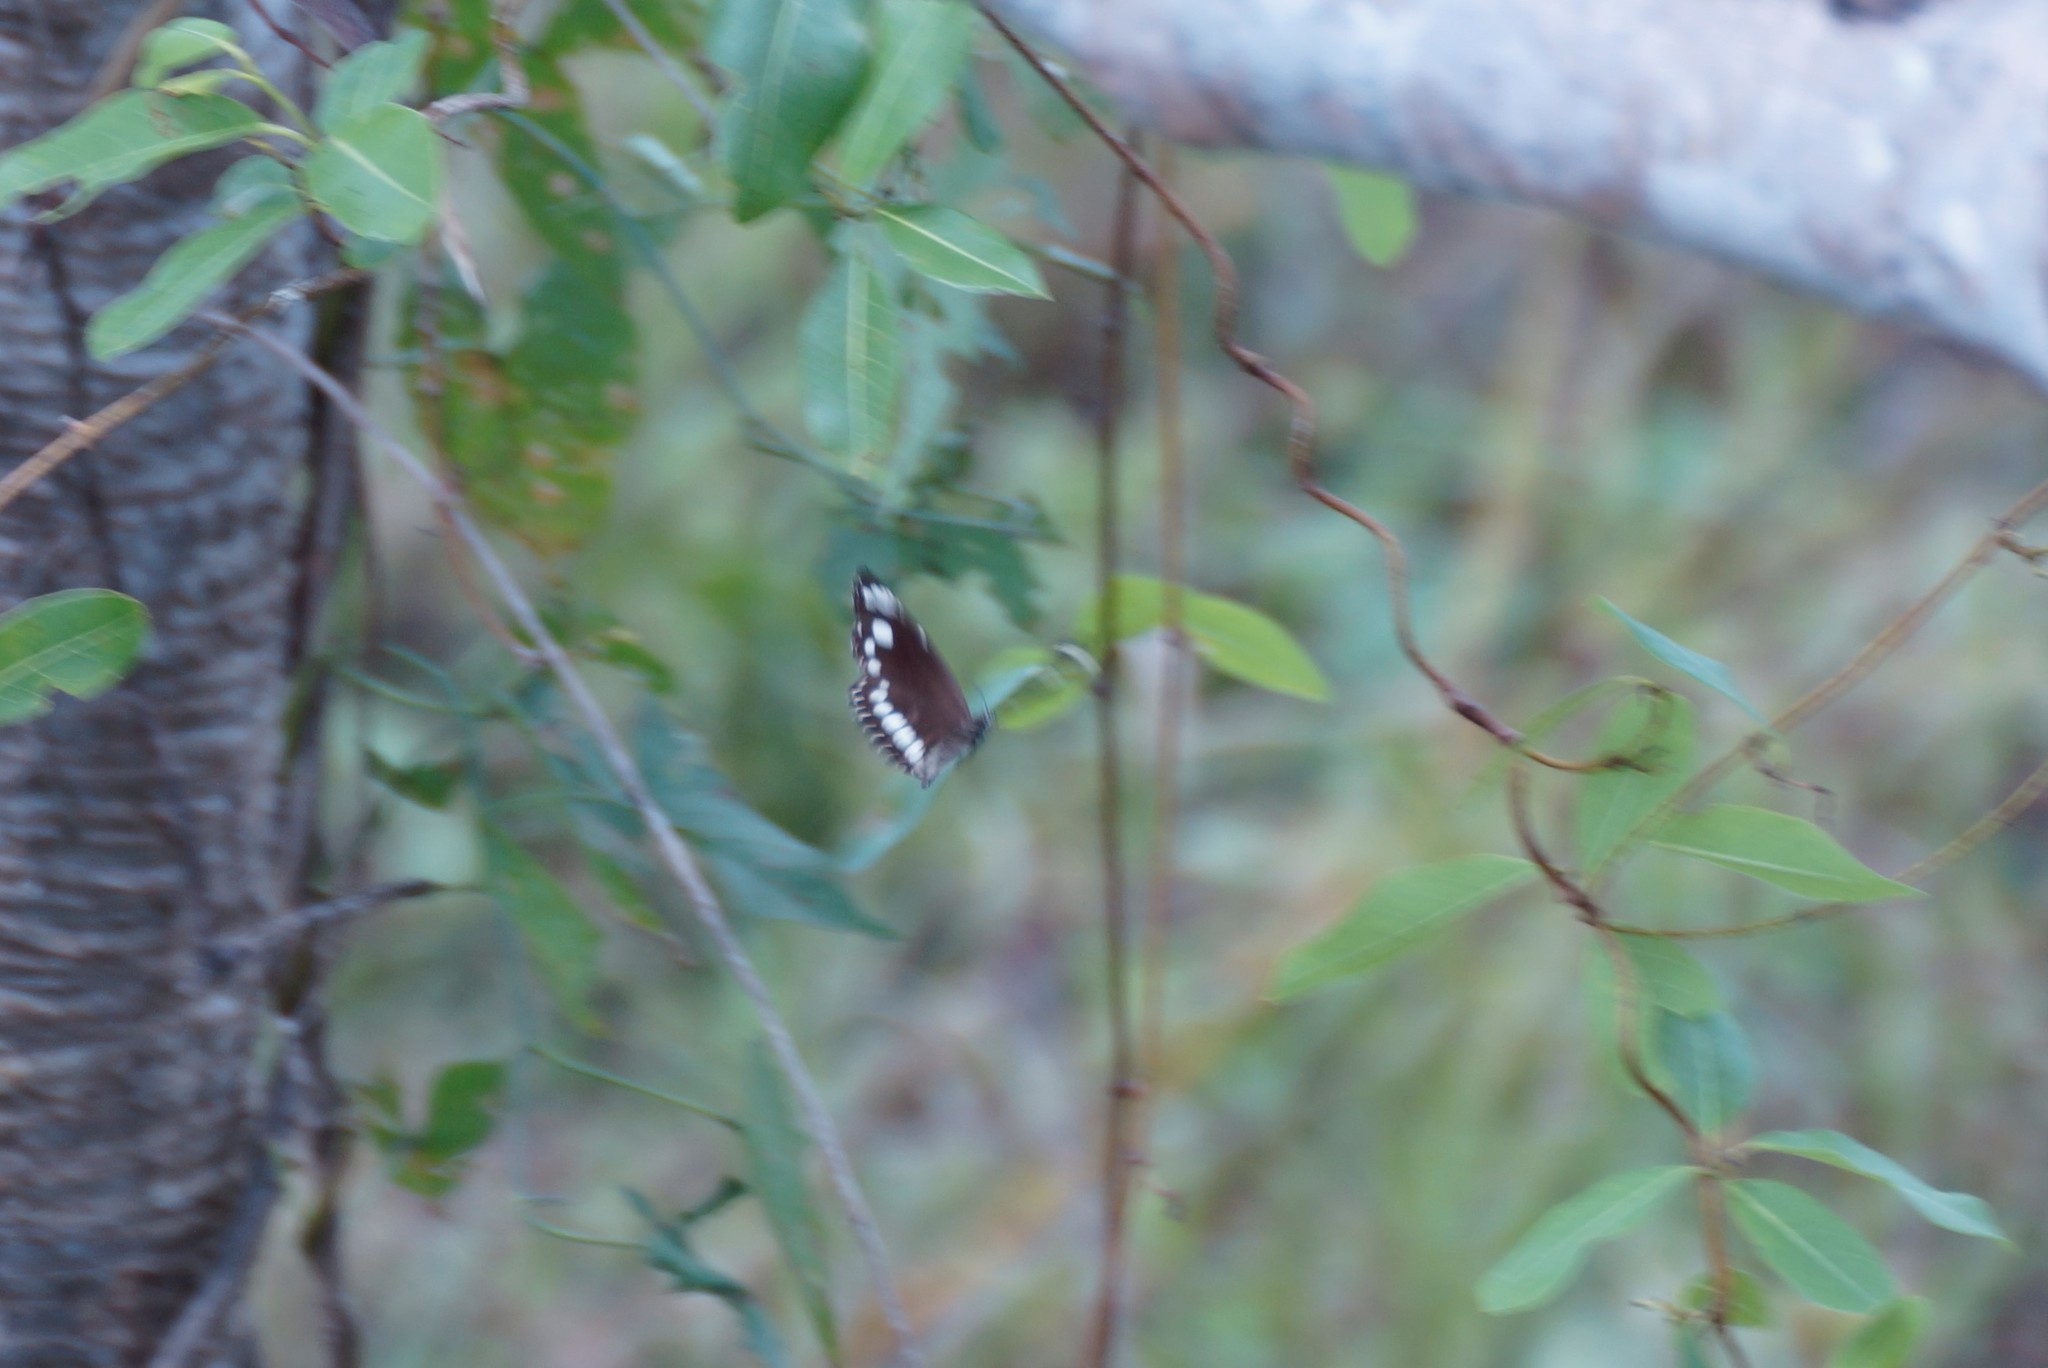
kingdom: Animalia
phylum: Arthropoda
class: Insecta
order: Lepidoptera
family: Nymphalidae
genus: Euploea
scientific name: Euploea core
